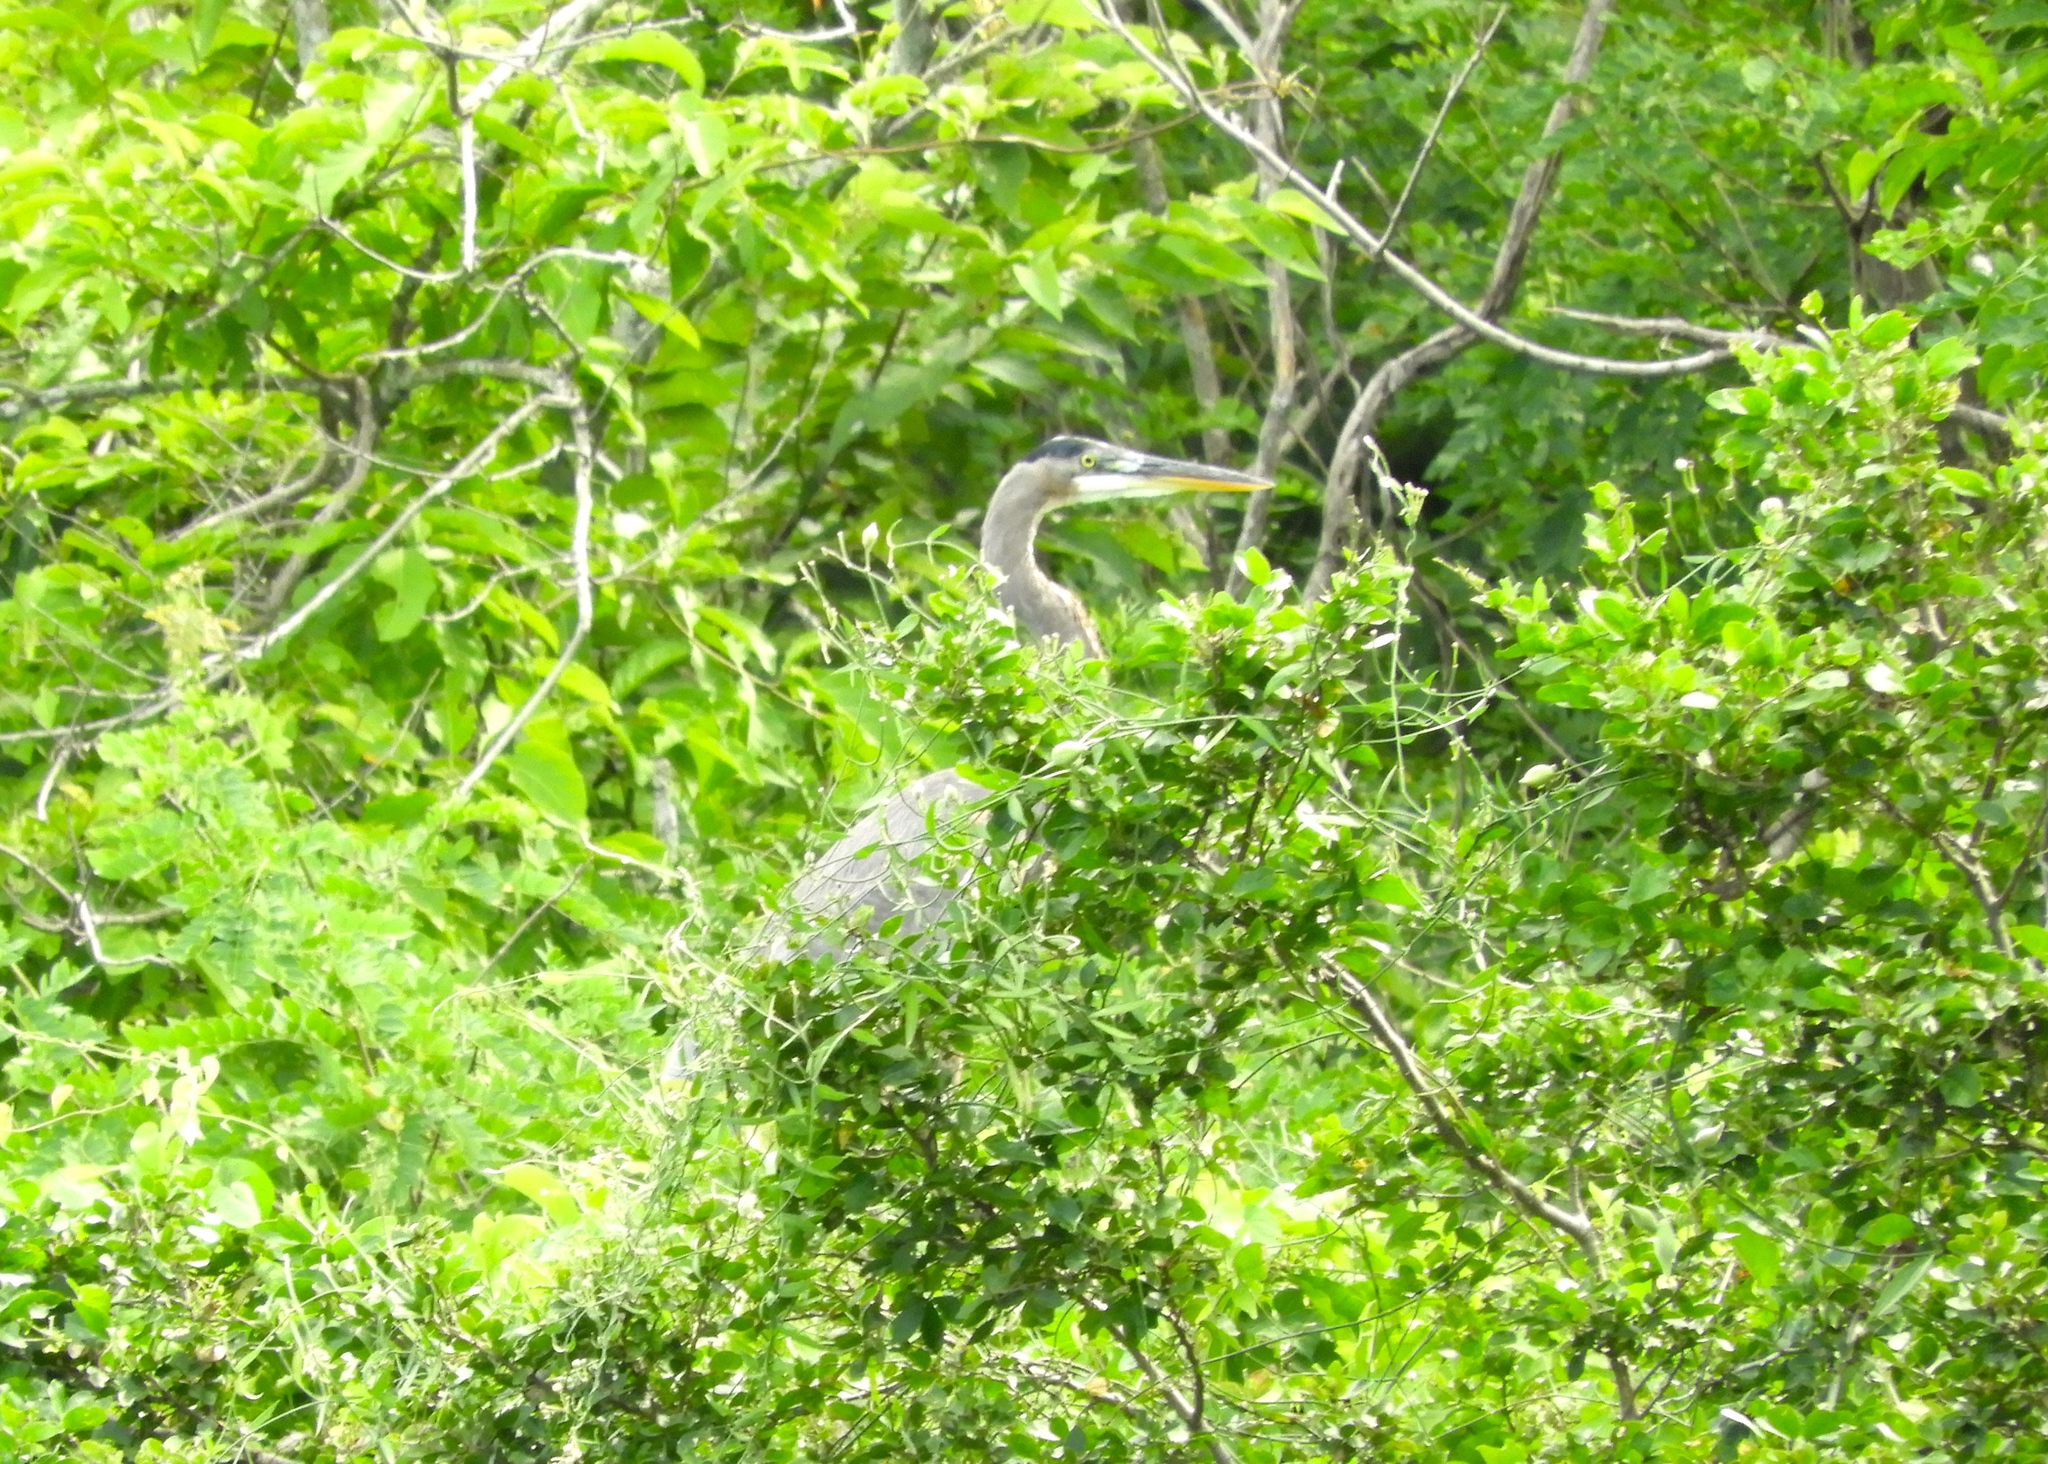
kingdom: Animalia
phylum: Chordata
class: Aves
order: Pelecaniformes
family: Ardeidae
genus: Ardea
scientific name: Ardea herodias
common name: Great blue heron
